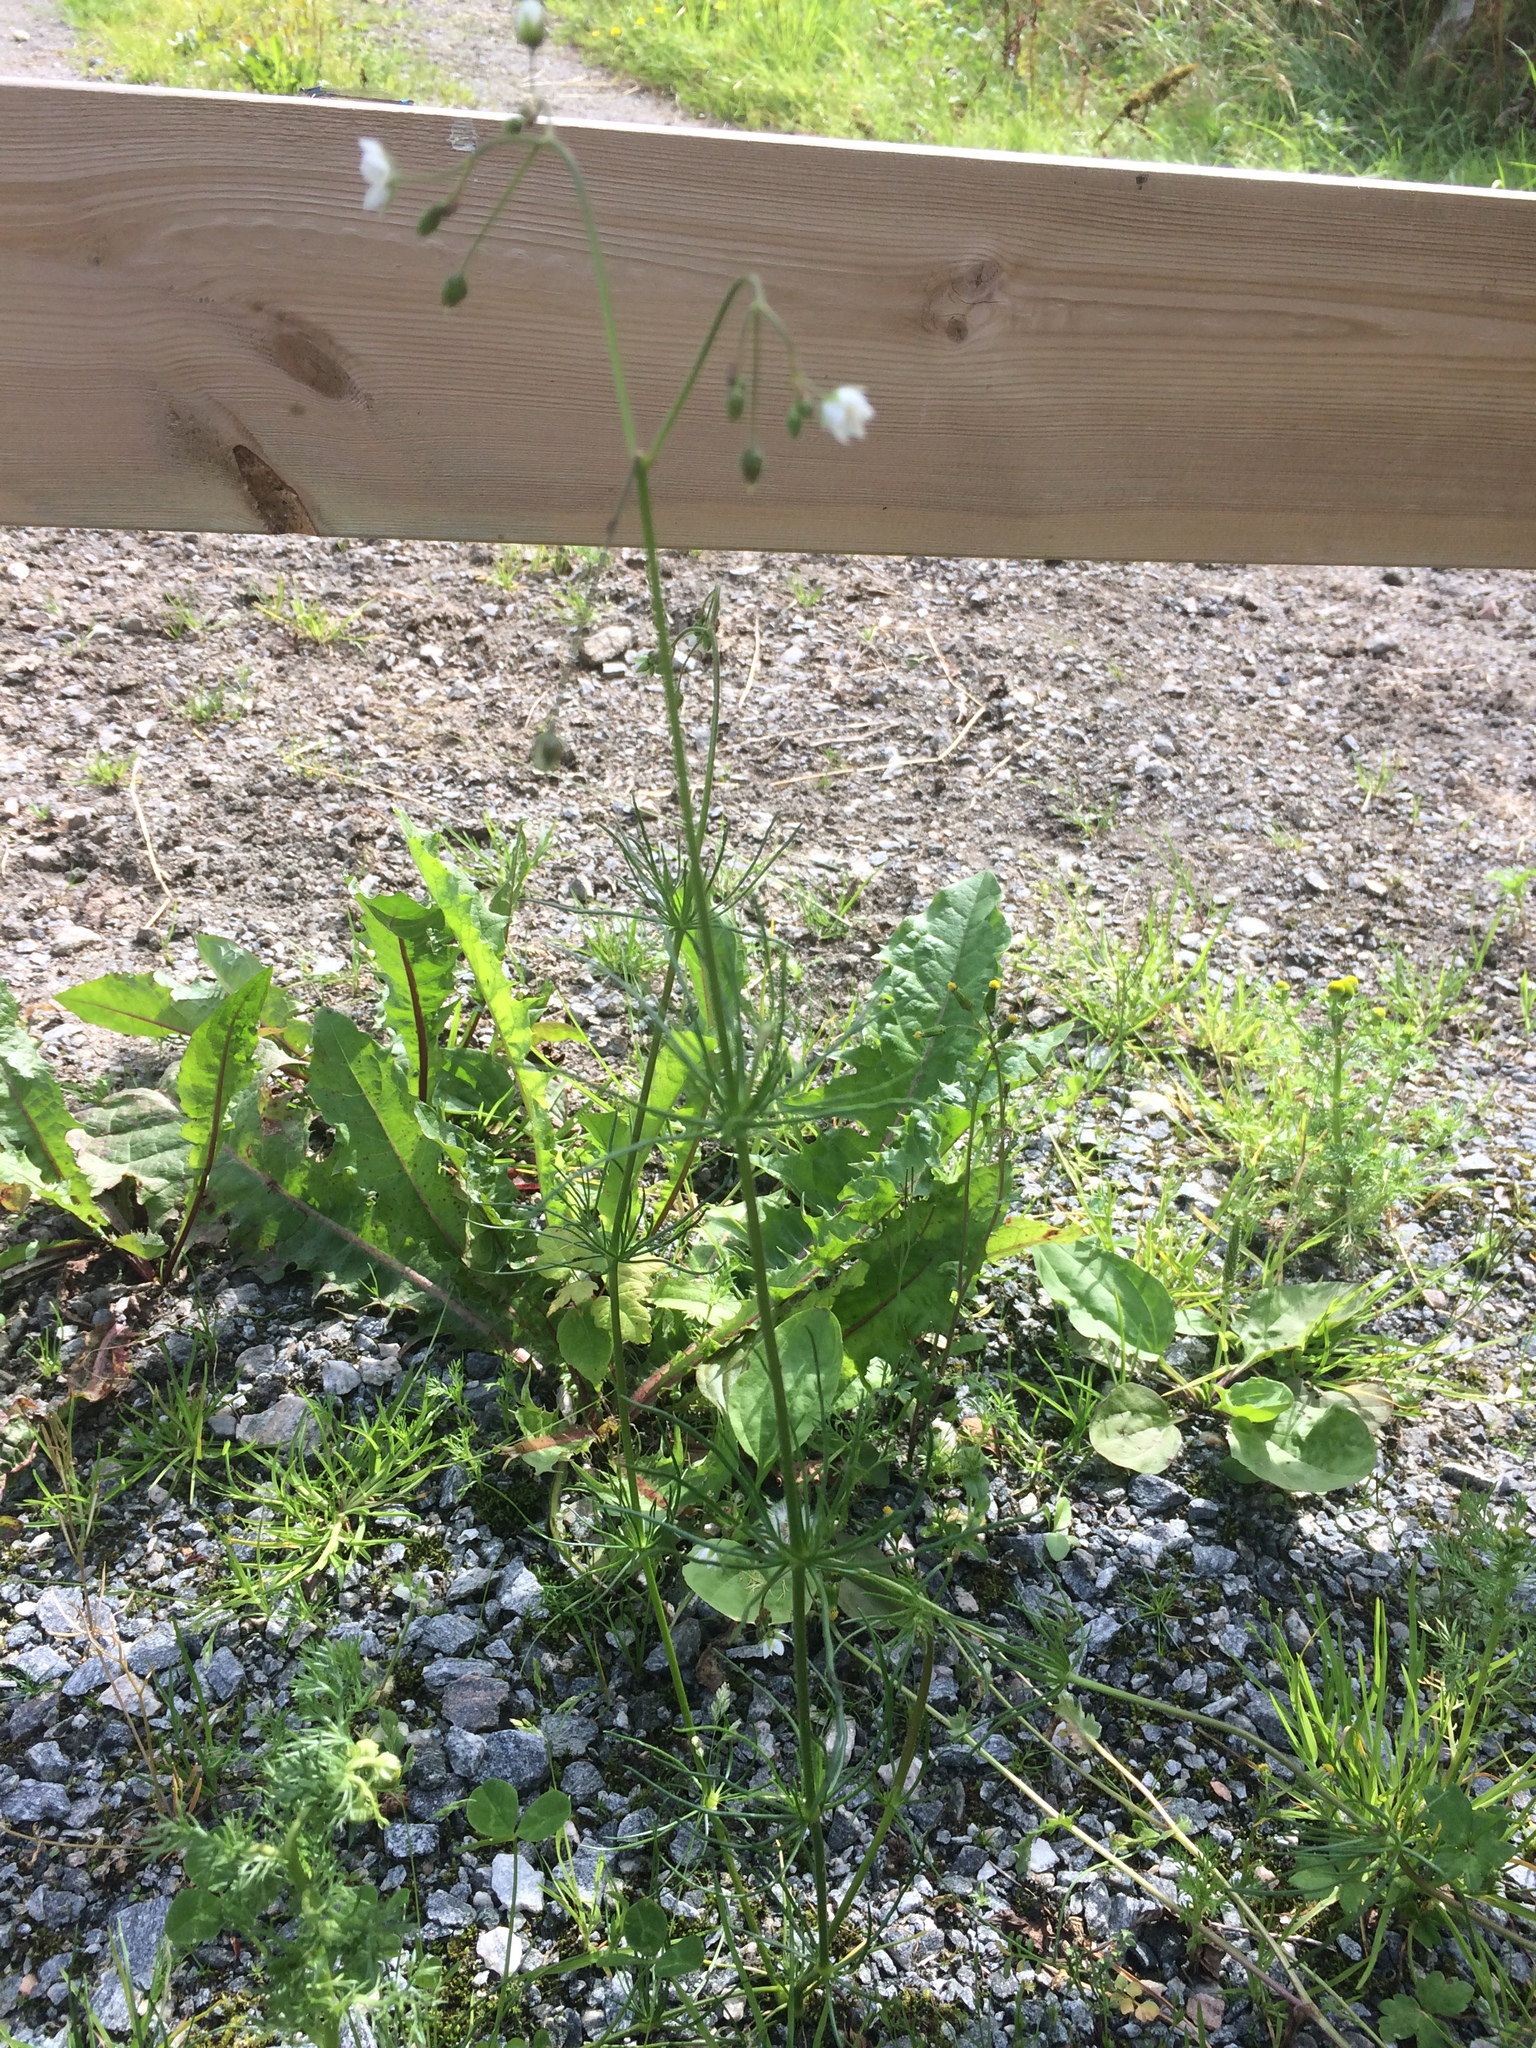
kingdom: Plantae
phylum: Tracheophyta
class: Magnoliopsida
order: Caryophyllales
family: Caryophyllaceae
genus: Spergula
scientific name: Spergula arvensis
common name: Corn spurrey
